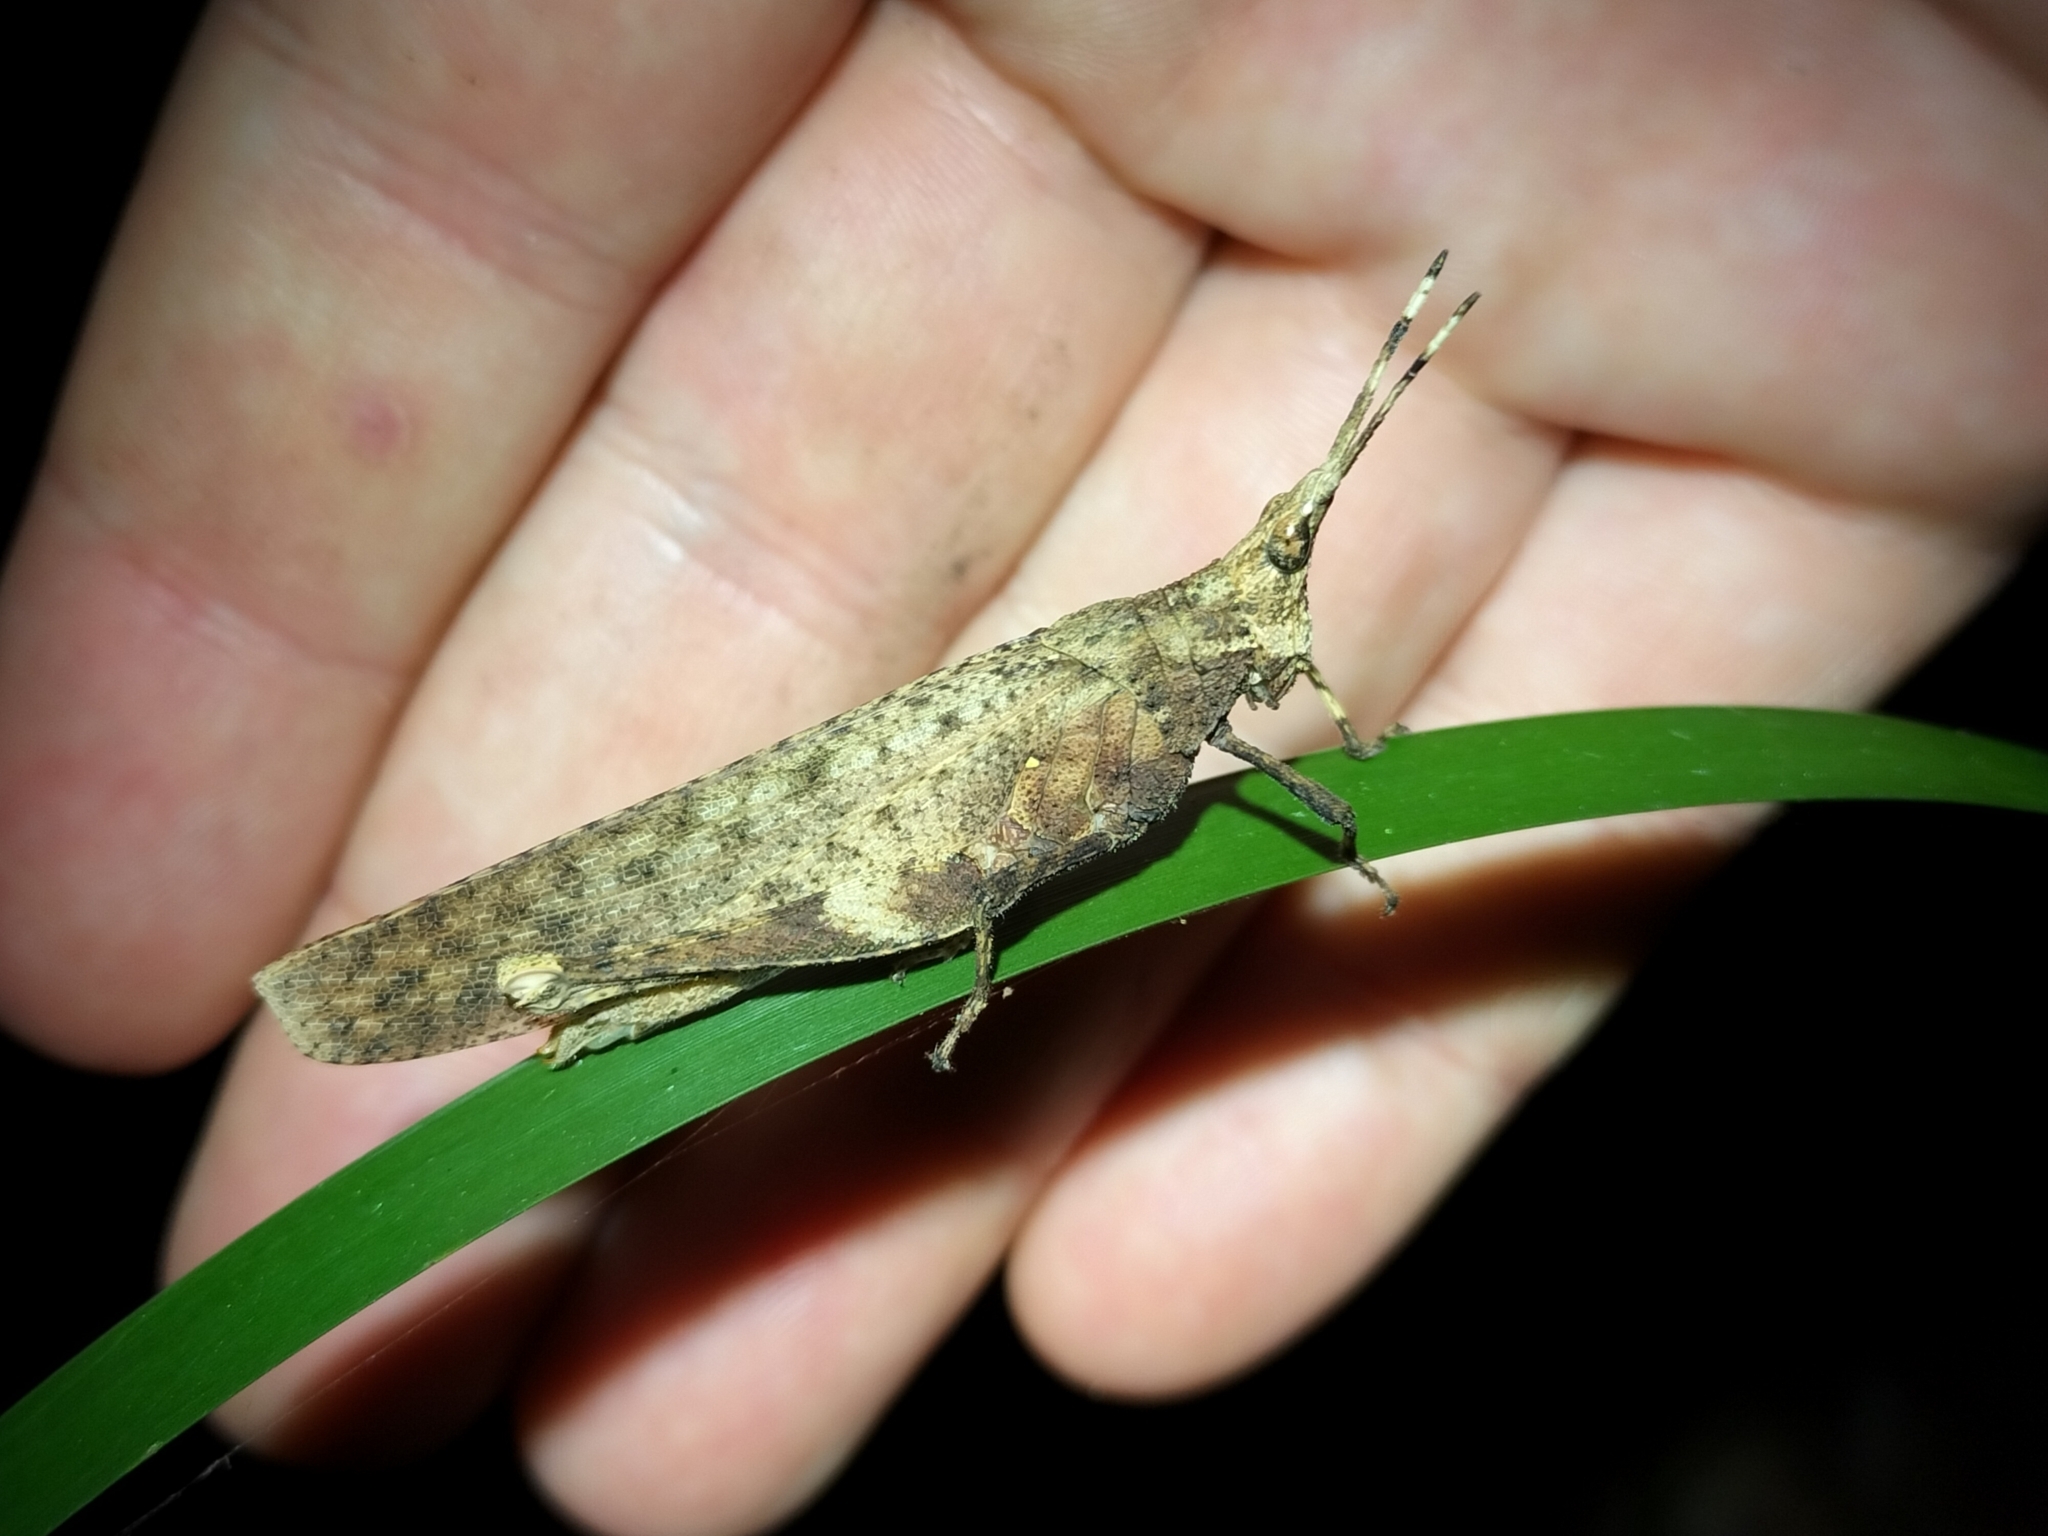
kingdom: Animalia
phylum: Arthropoda
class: Insecta
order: Orthoptera
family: Pyrgomorphidae
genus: Desmoptera
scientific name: Desmoptera truncatipennis
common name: Large forest pyrgomorph
